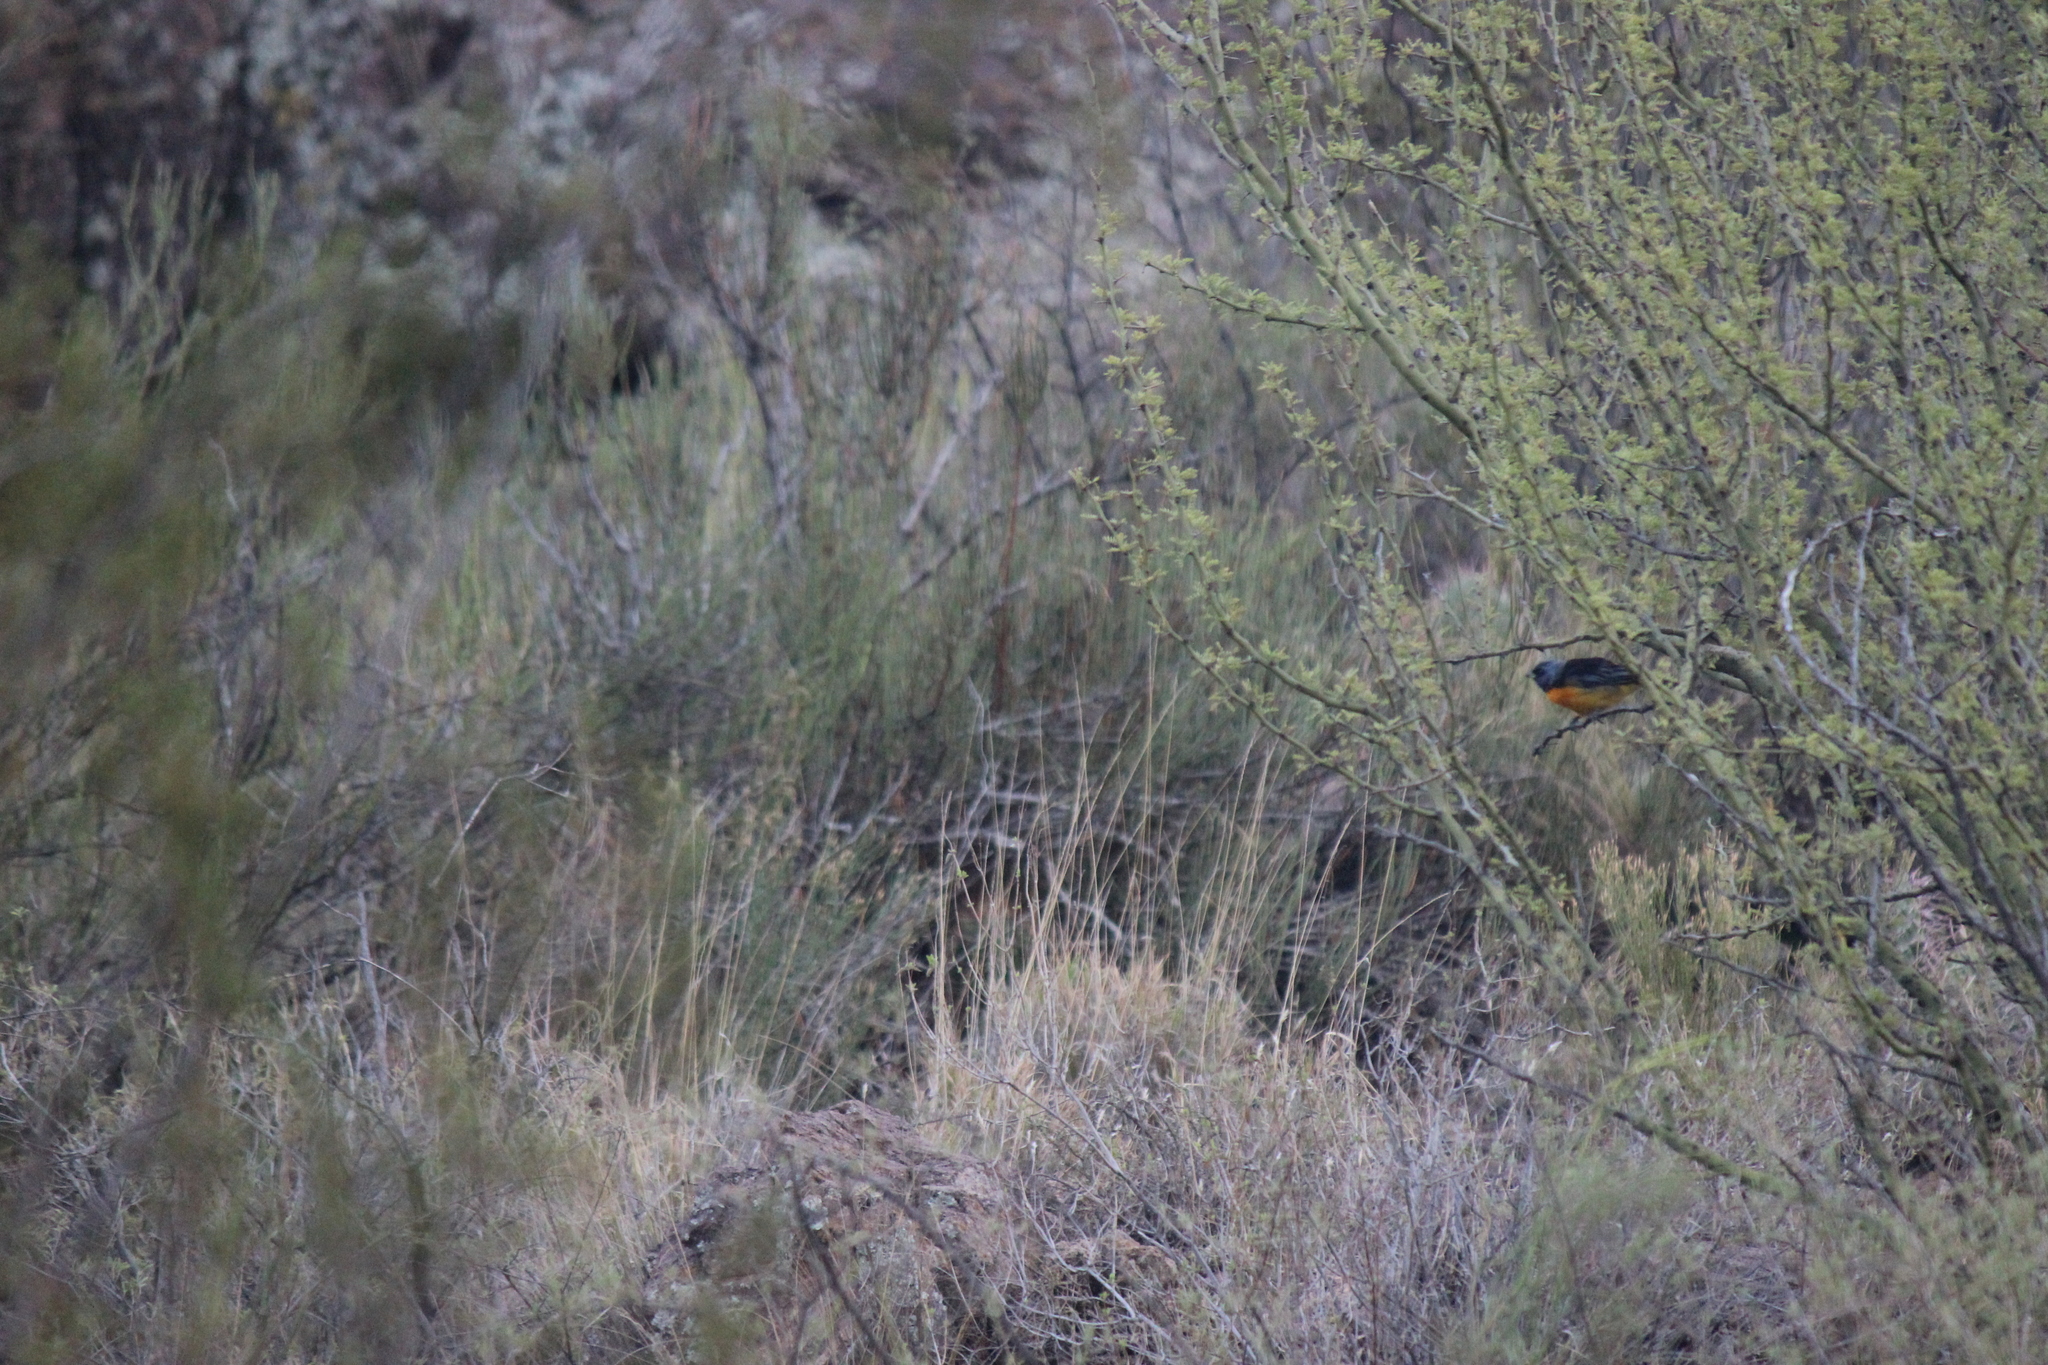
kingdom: Animalia
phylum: Chordata
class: Aves
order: Passeriformes
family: Thraupidae
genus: Rauenia
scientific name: Rauenia bonariensis
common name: Blue-and-yellow tanager
